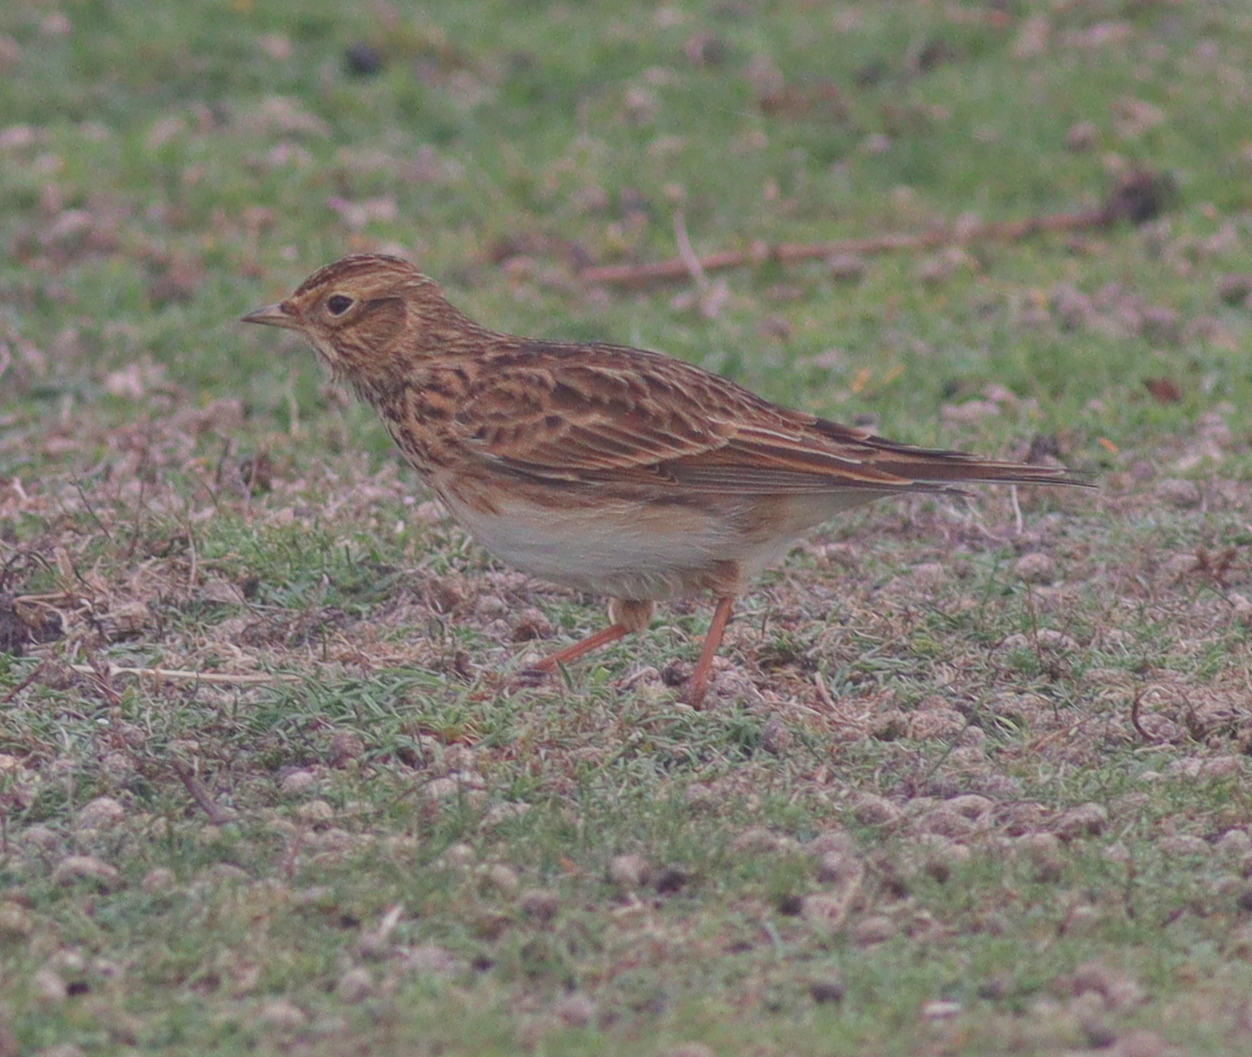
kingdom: Animalia
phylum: Chordata
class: Aves
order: Passeriformes
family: Alaudidae
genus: Alauda
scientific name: Alauda arvensis
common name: Eurasian skylark
